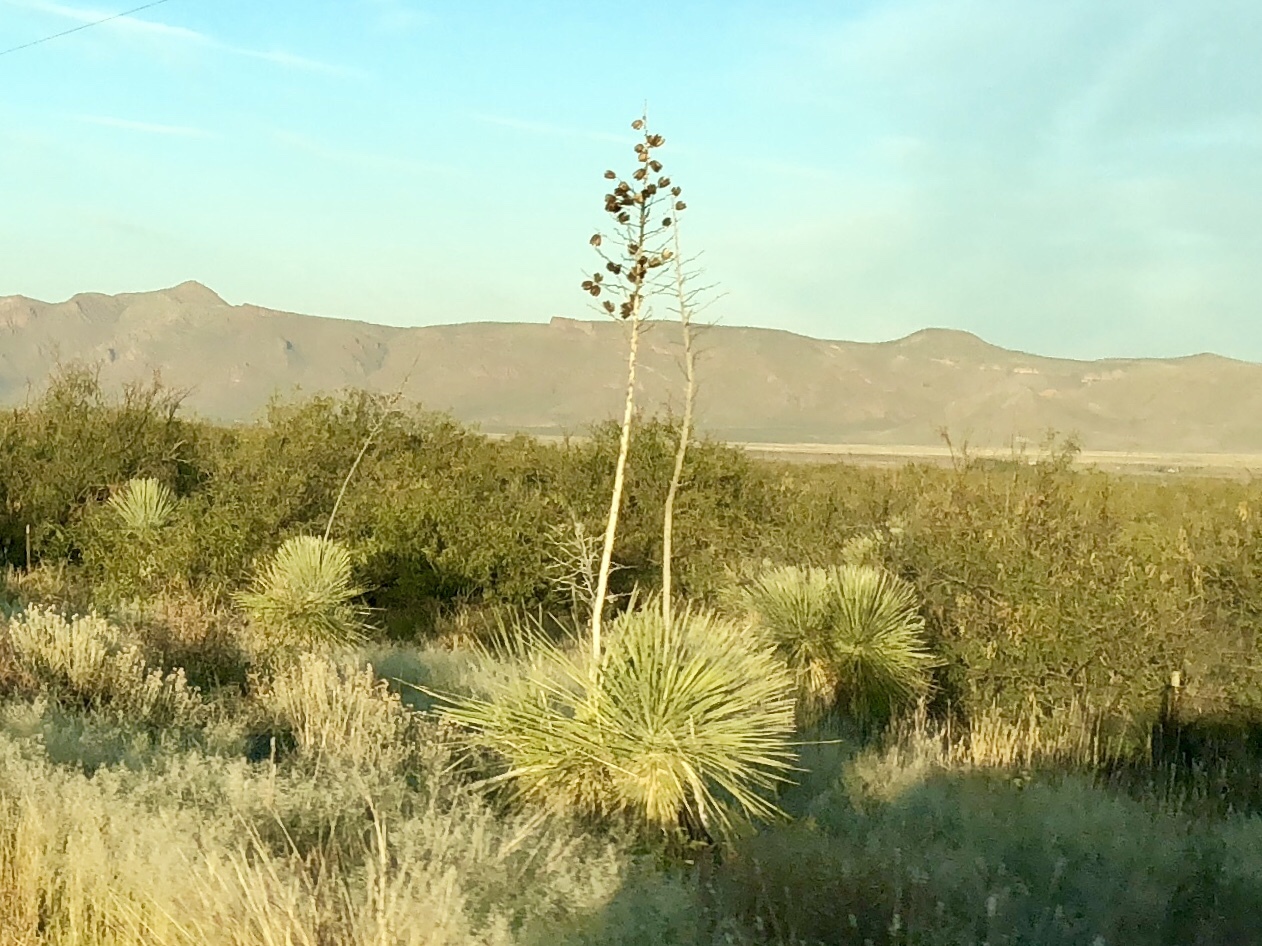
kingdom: Plantae
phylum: Tracheophyta
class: Liliopsida
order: Asparagales
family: Asparagaceae
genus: Yucca
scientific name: Yucca elata
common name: Palmella
